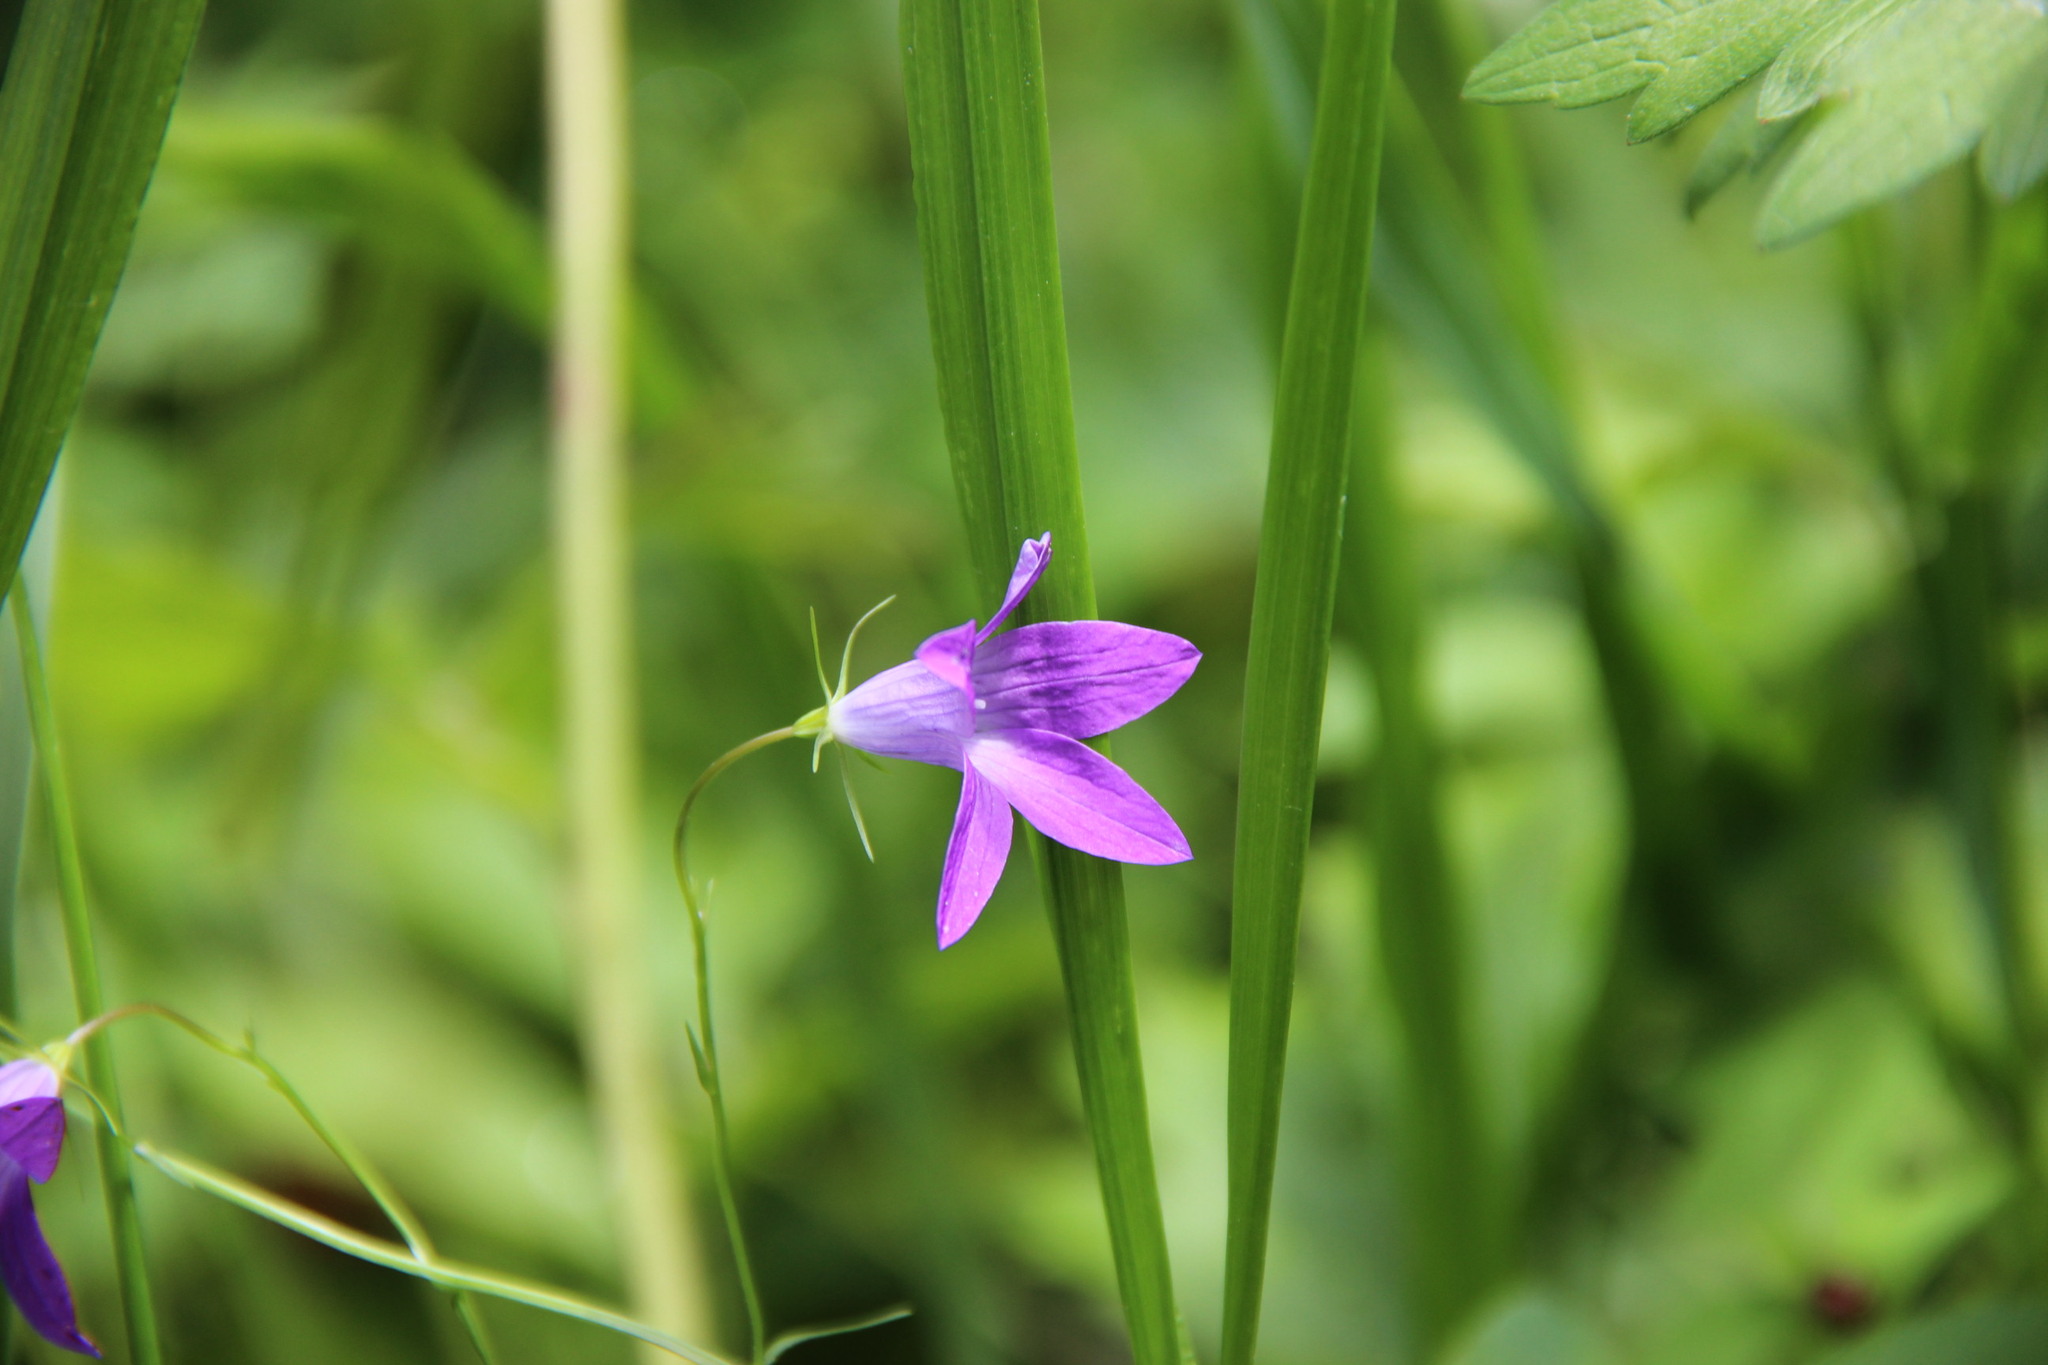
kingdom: Plantae
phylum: Tracheophyta
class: Magnoliopsida
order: Asterales
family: Campanulaceae
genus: Campanula
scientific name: Campanula patula
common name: Spreading bellflower
